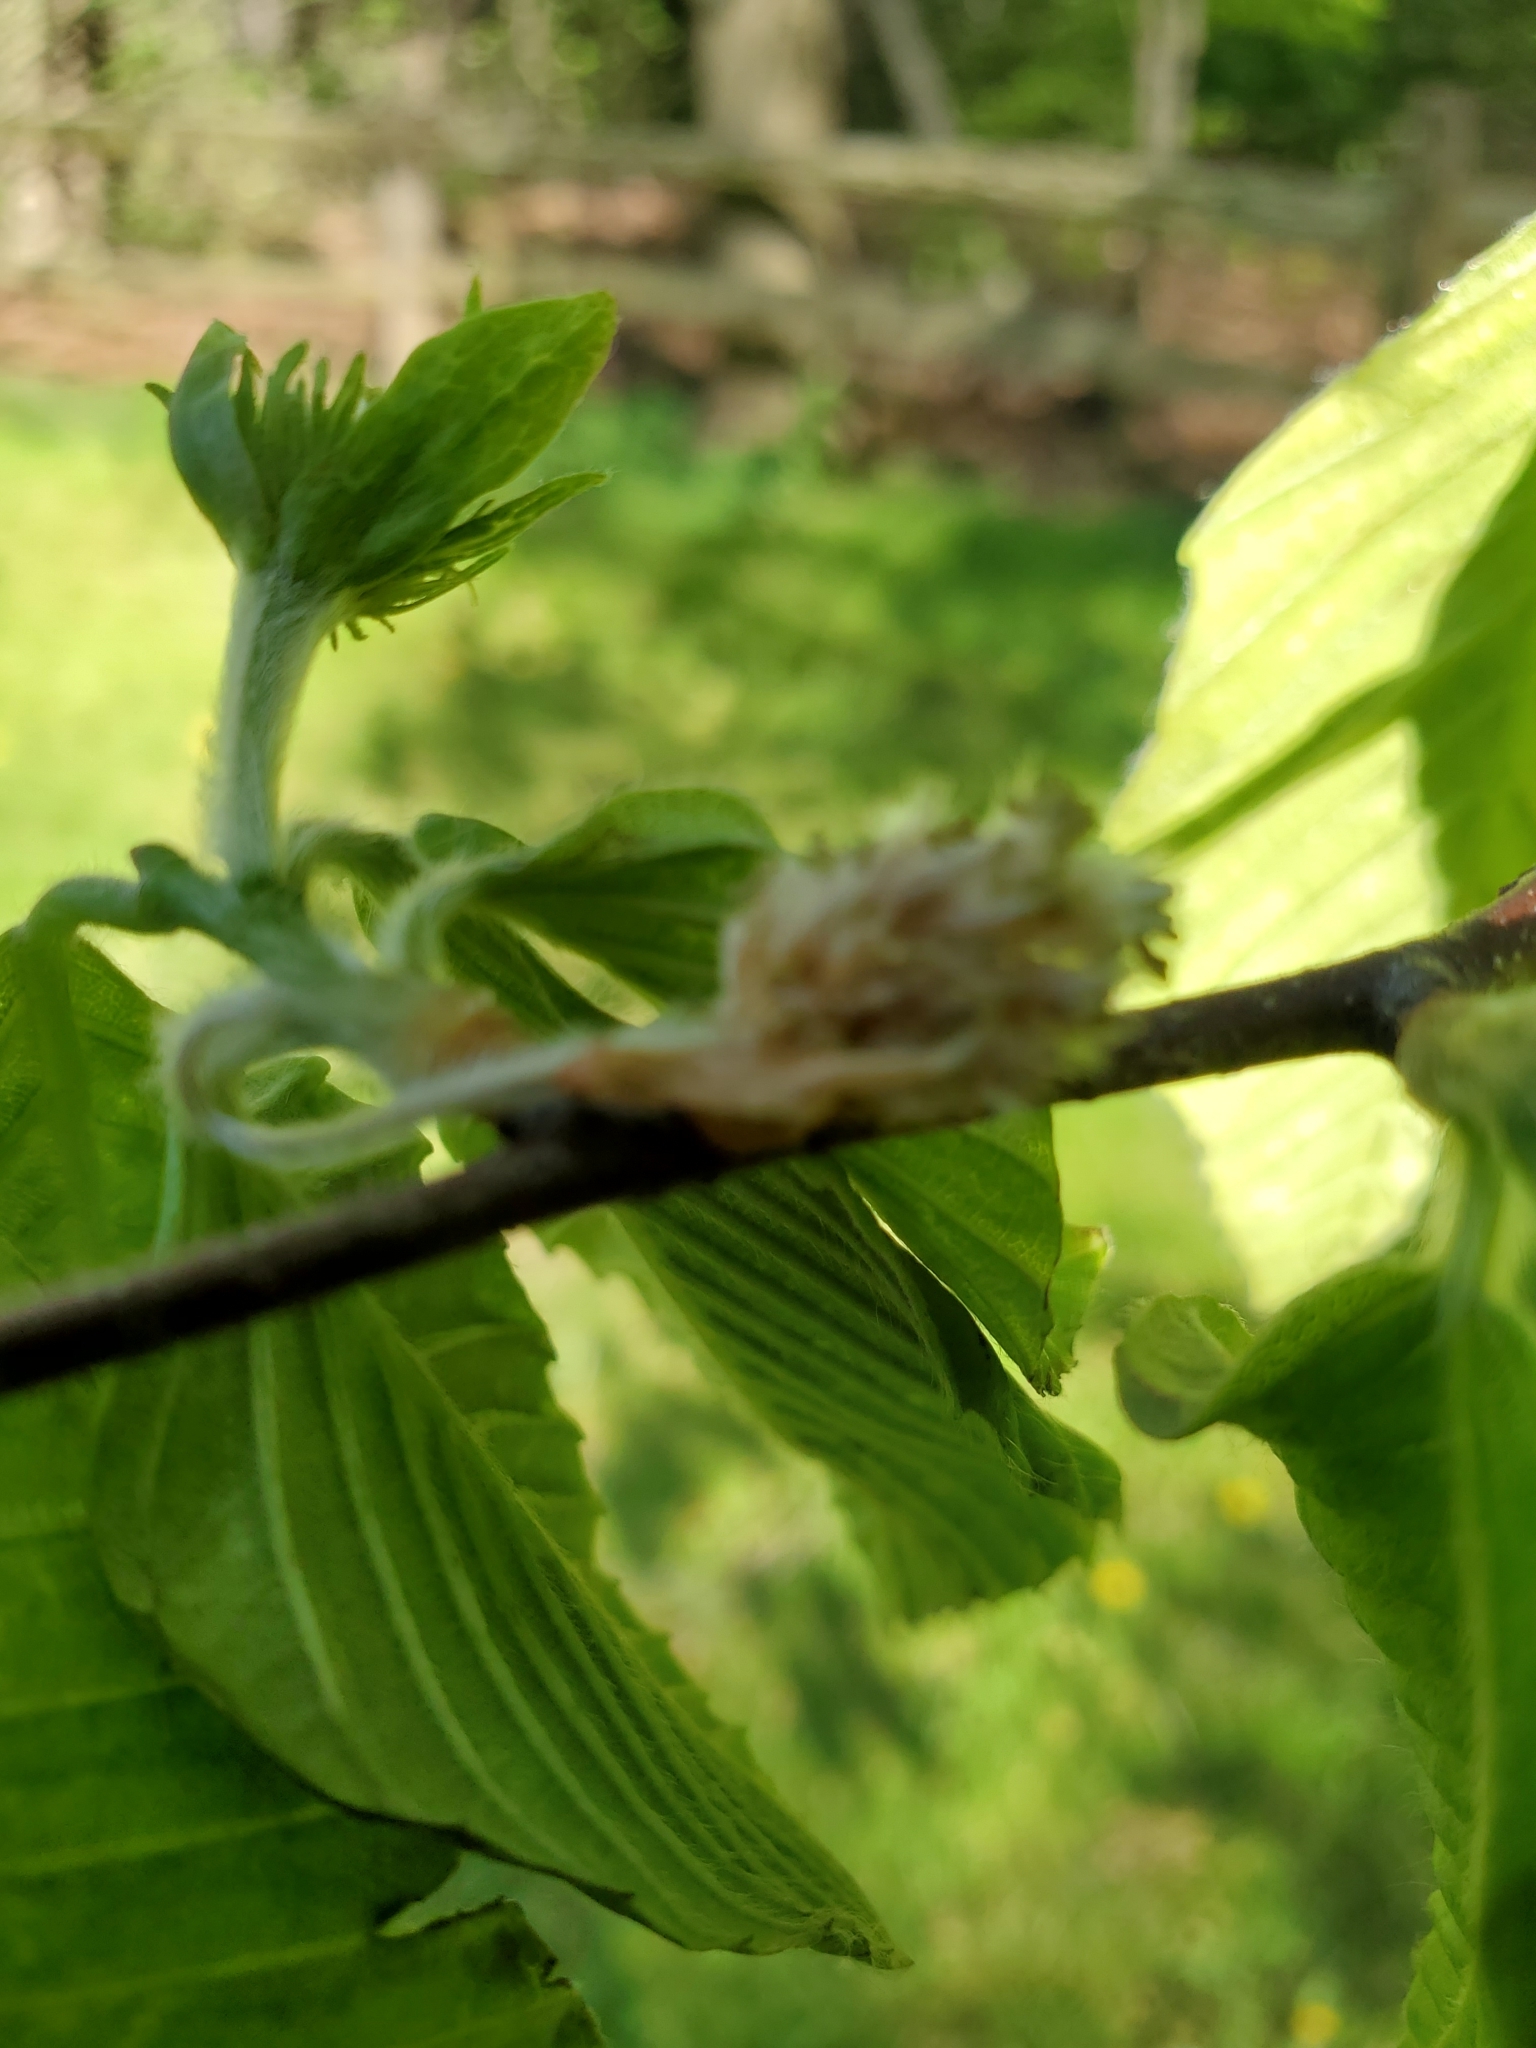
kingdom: Plantae
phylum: Tracheophyta
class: Magnoliopsida
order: Fagales
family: Fagaceae
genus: Fagus
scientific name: Fagus grandifolia
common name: American beech
